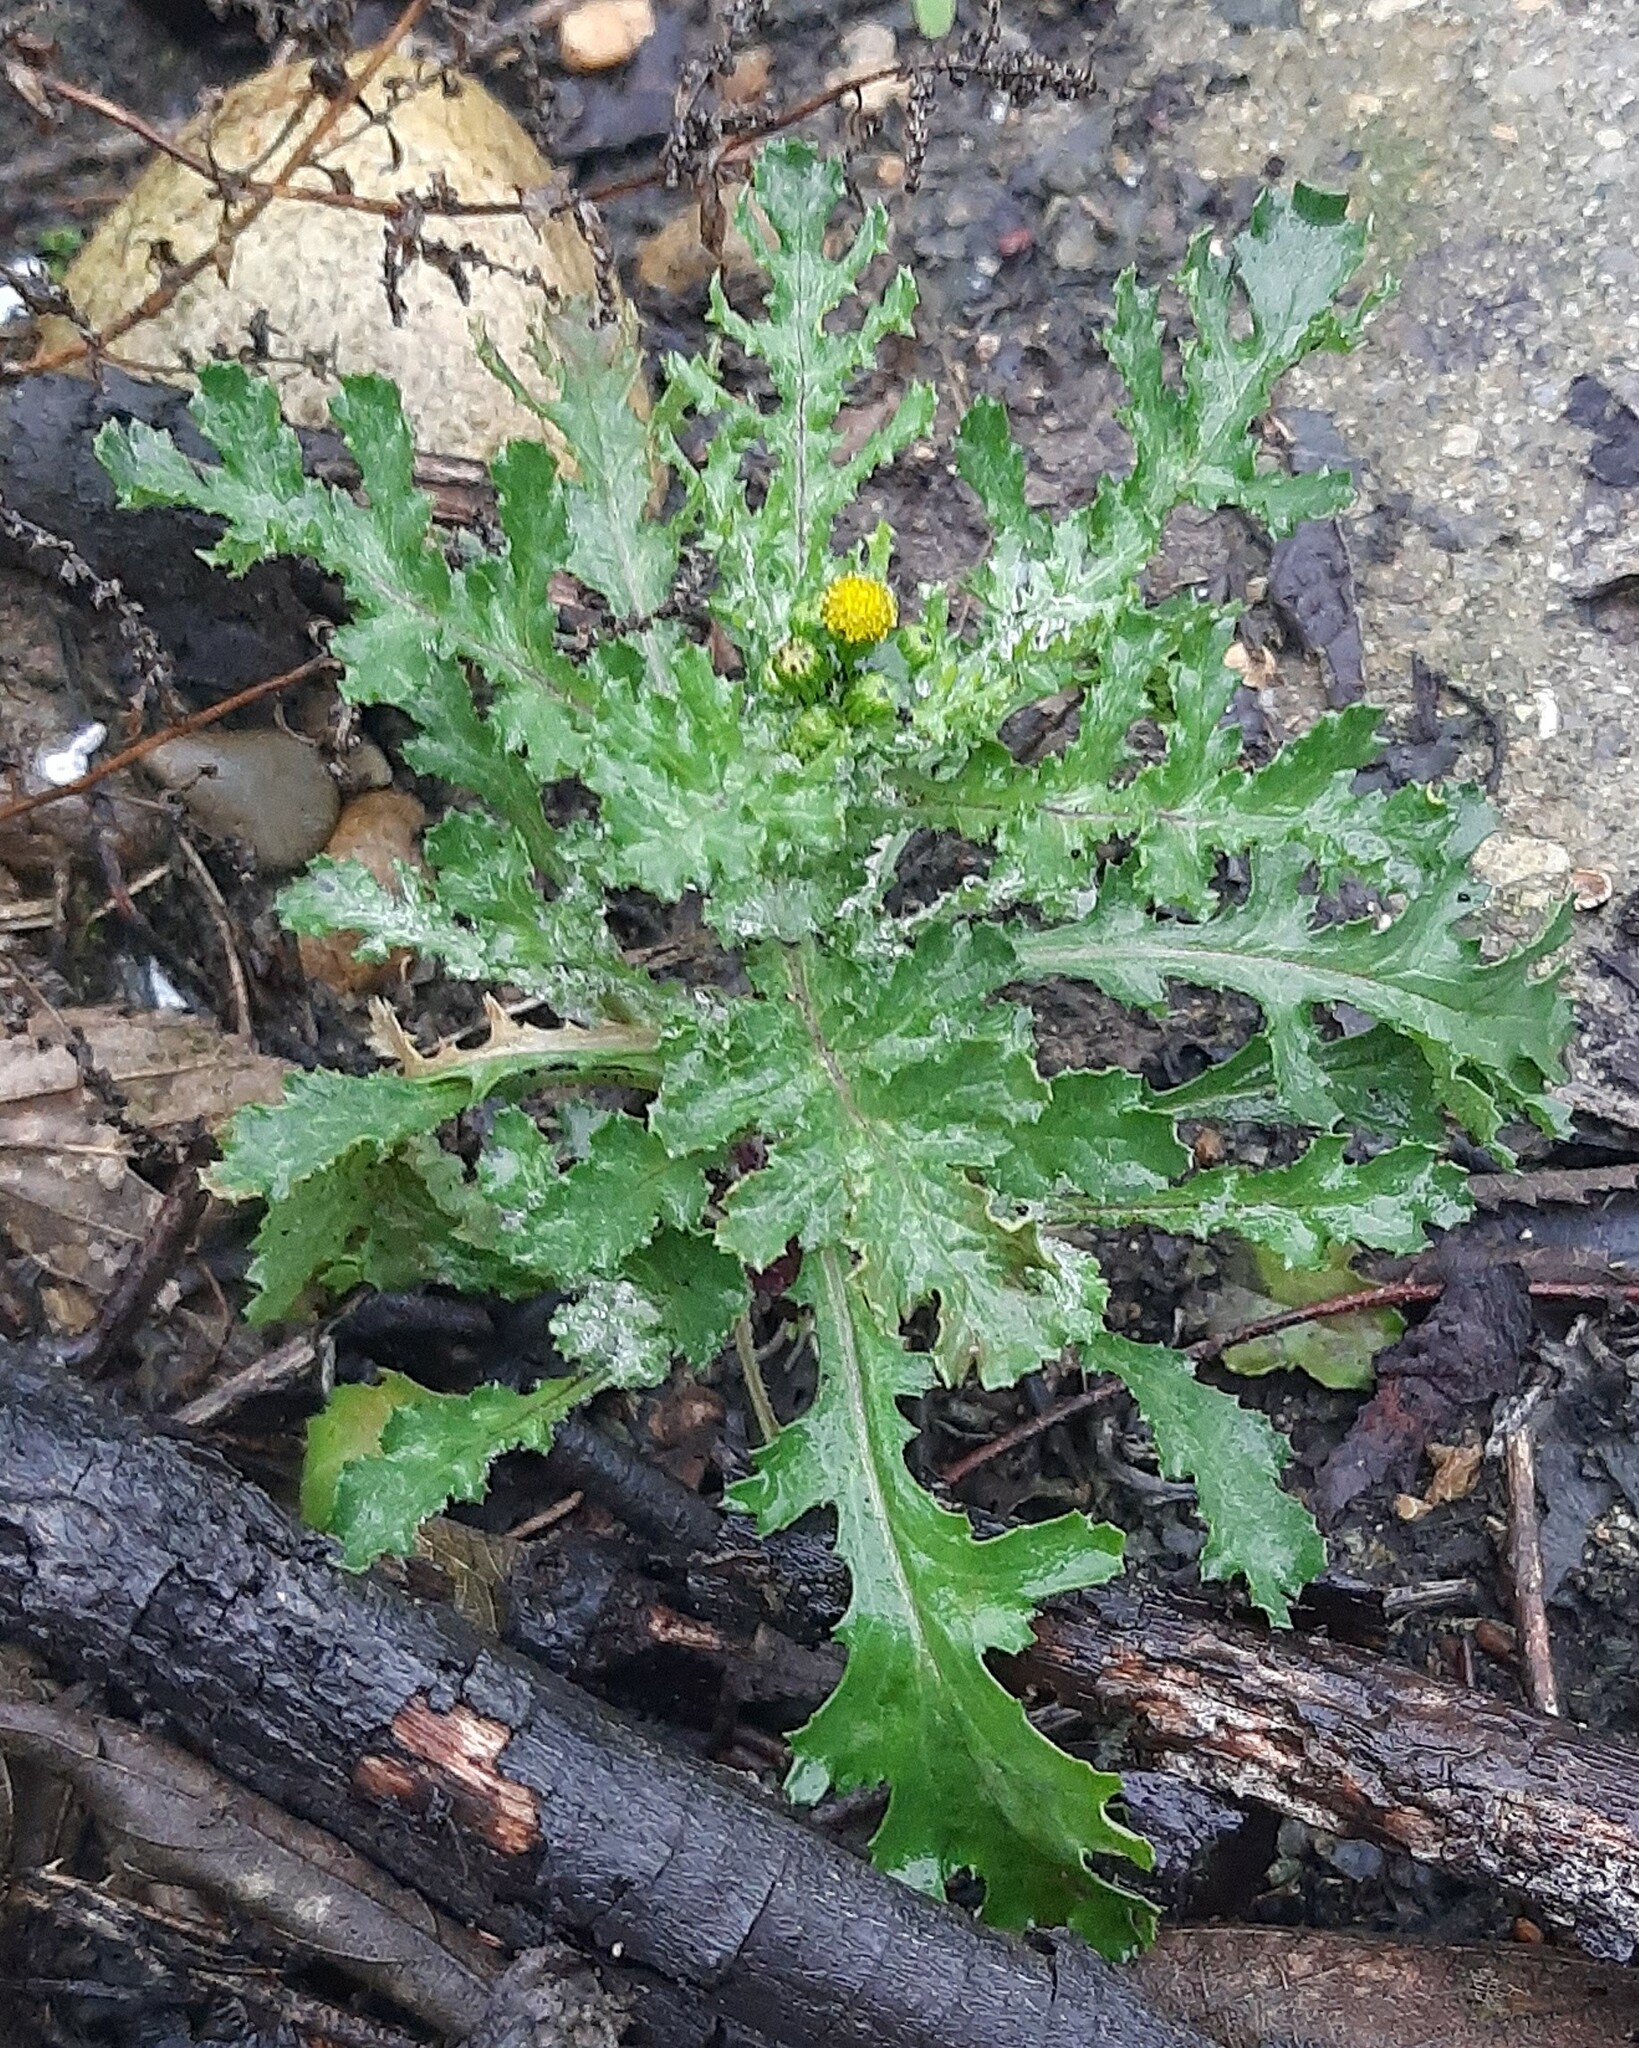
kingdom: Plantae
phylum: Tracheophyta
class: Magnoliopsida
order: Asterales
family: Asteraceae
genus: Senecio
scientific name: Senecio vulgaris
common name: Old-man-in-the-spring
